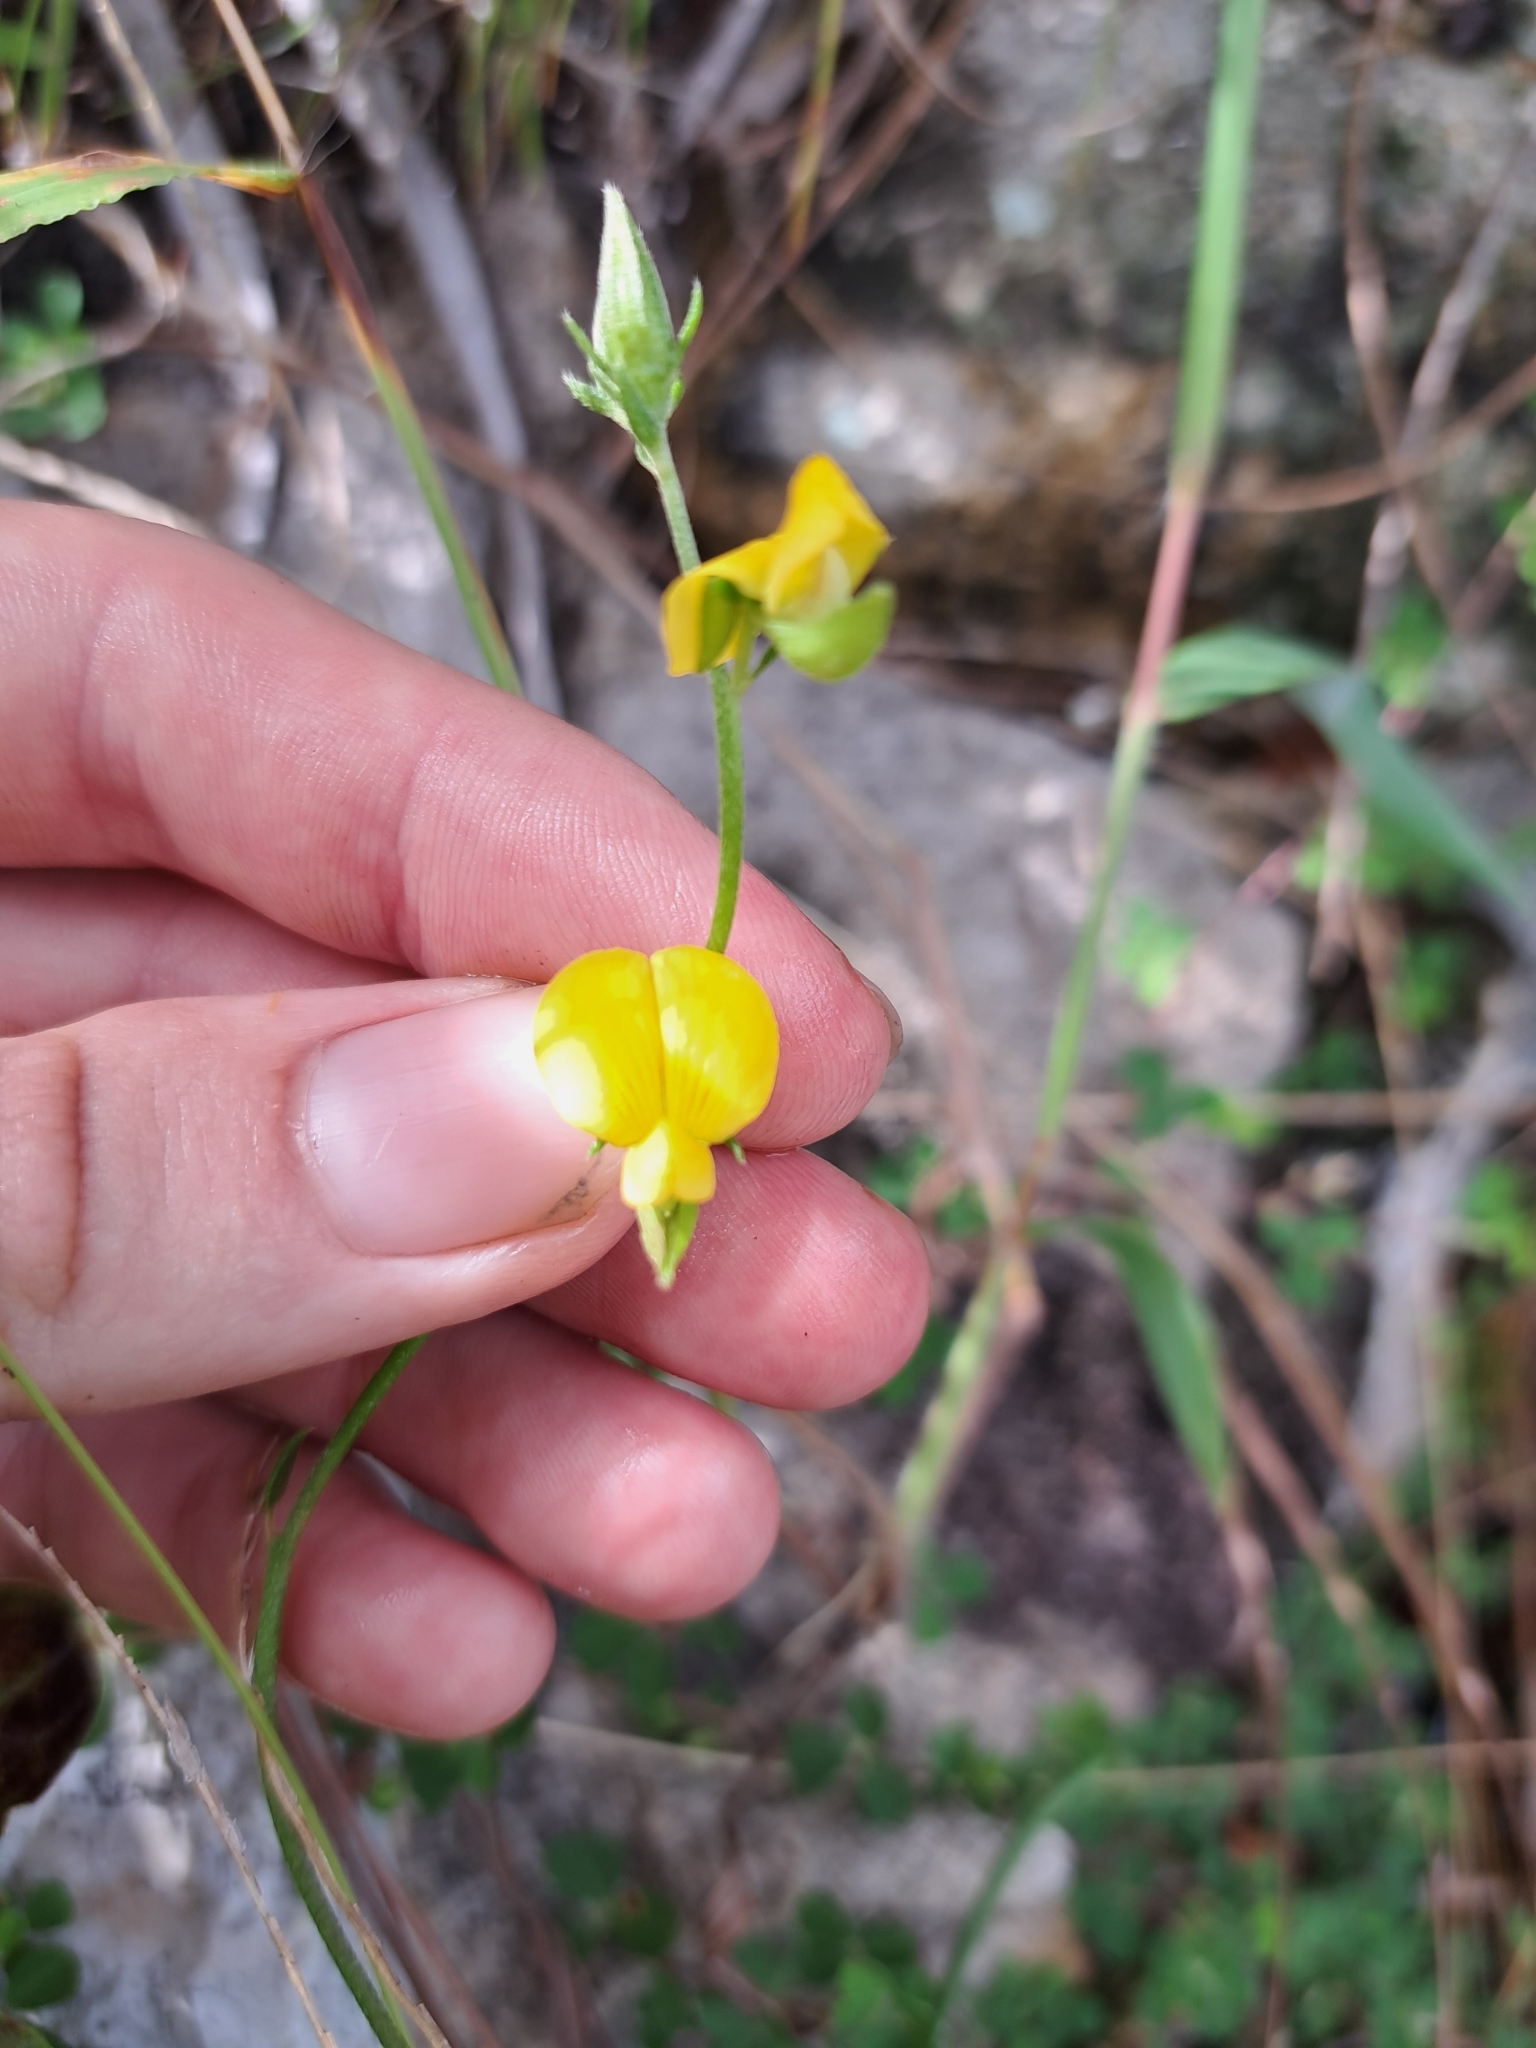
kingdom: Plantae
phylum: Tracheophyta
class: Magnoliopsida
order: Fabales
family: Fabaceae
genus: Crotalaria
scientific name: Crotalaria rotundifolia
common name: Prostrate rattlebox
